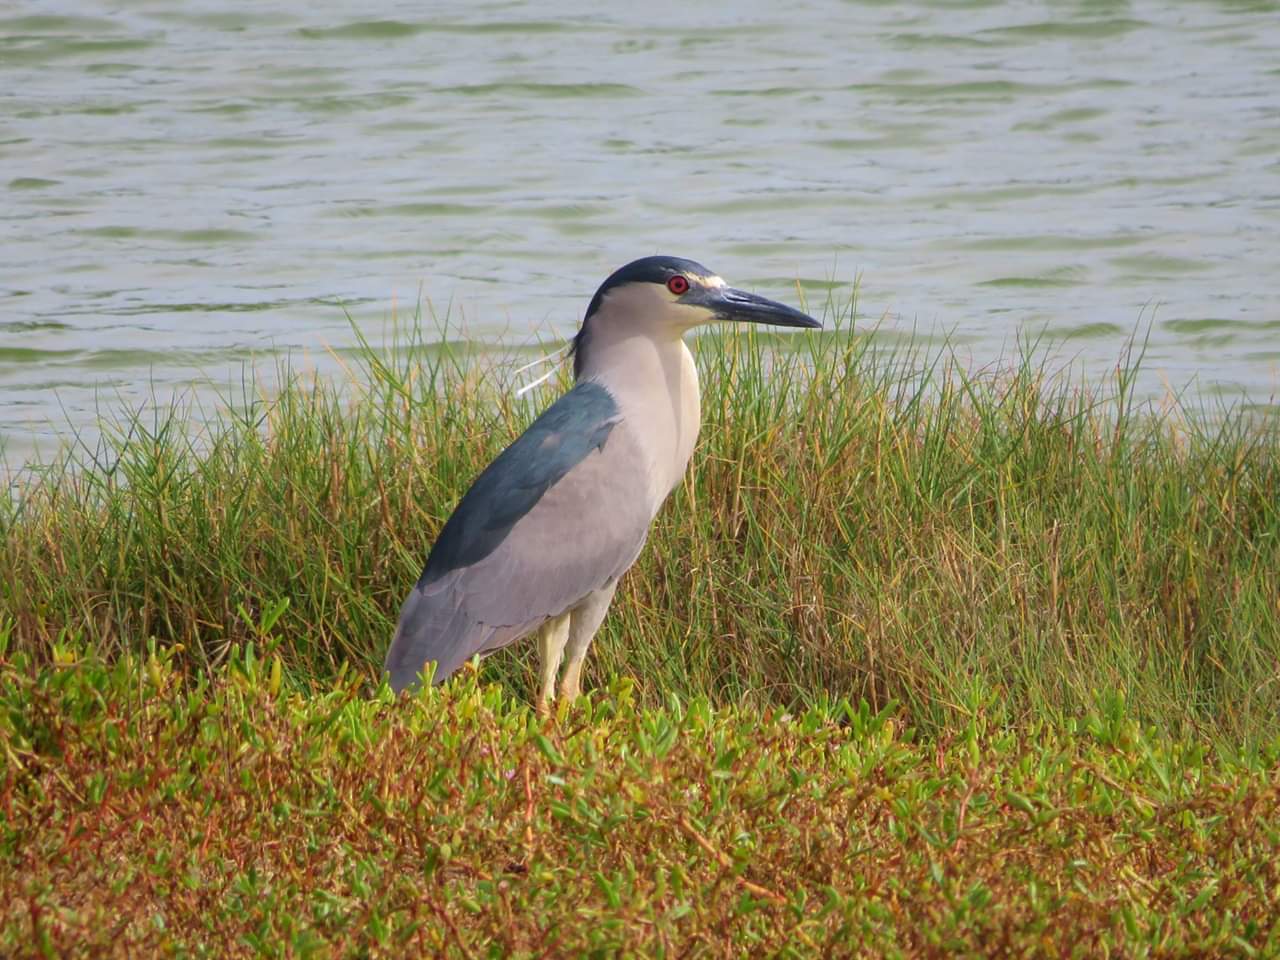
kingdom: Animalia
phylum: Chordata
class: Aves
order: Pelecaniformes
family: Ardeidae
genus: Nycticorax
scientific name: Nycticorax nycticorax
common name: Black-crowned night heron
